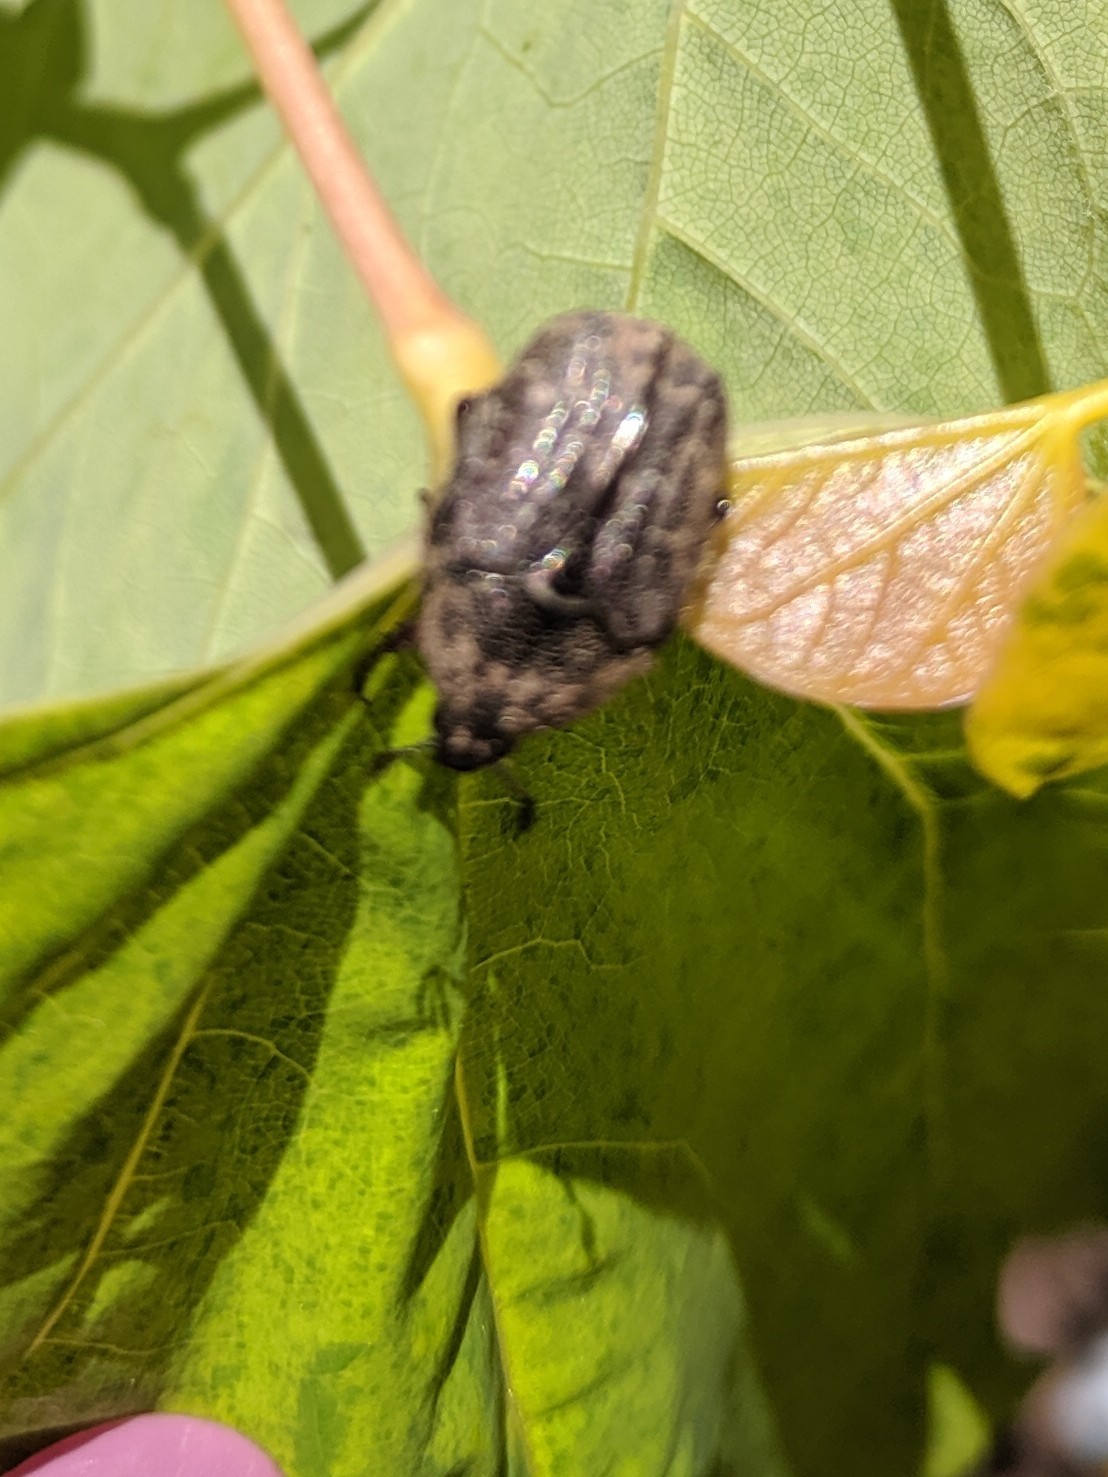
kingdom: Animalia
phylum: Arthropoda
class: Insecta
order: Coleoptera
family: Scarabaeidae
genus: Euphoria
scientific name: Euphoria sepulcralis
